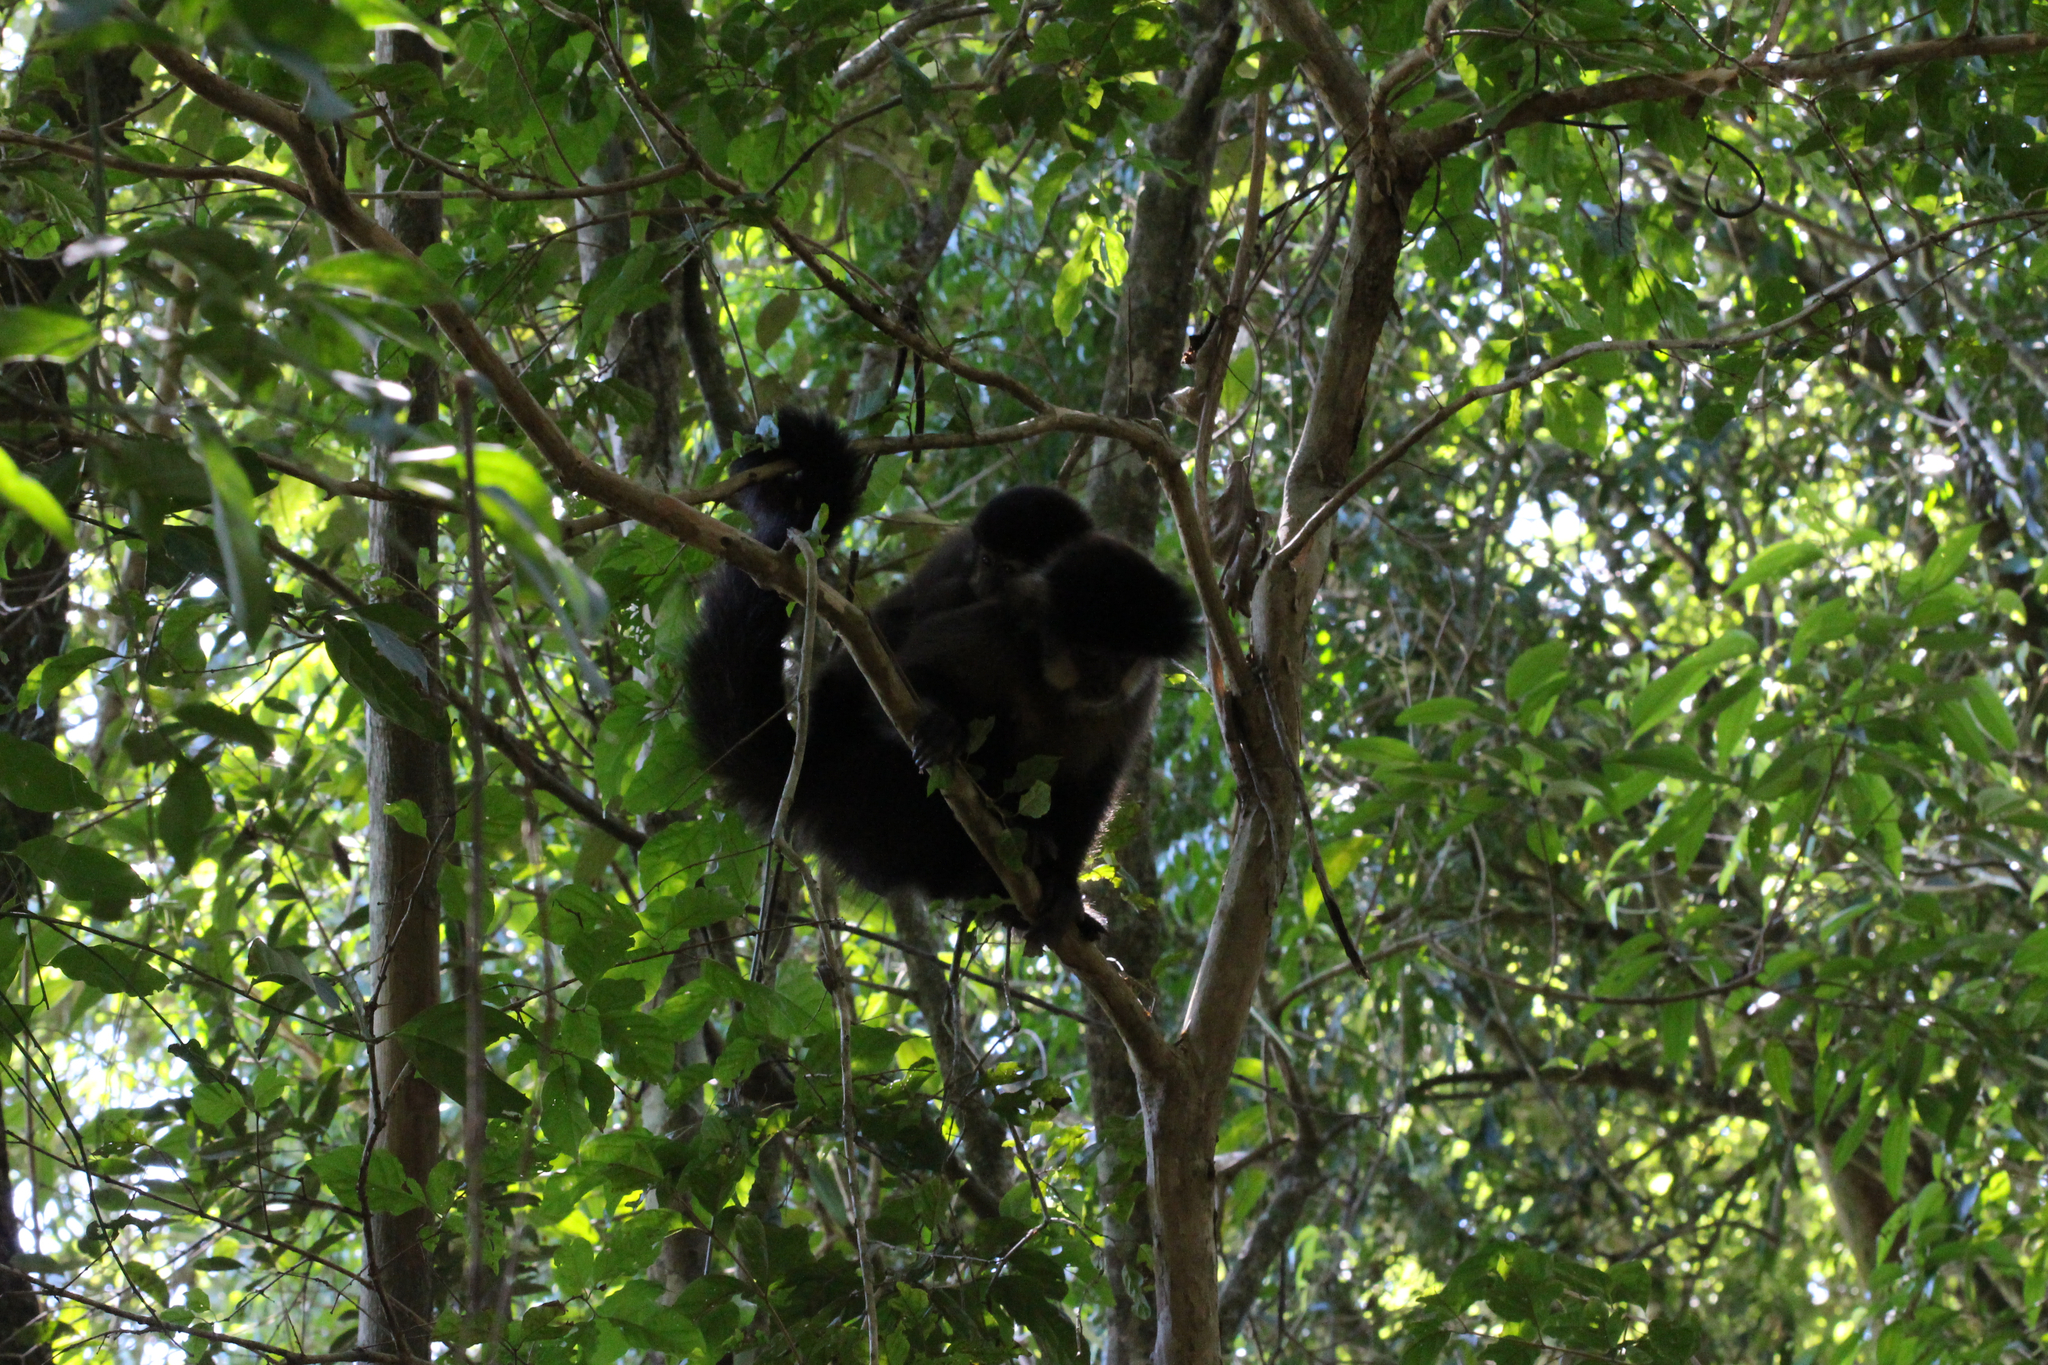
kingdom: Animalia
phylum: Chordata
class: Mammalia
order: Primates
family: Cebidae
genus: Sapajus
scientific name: Sapajus nigritus
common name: Black capuchin
